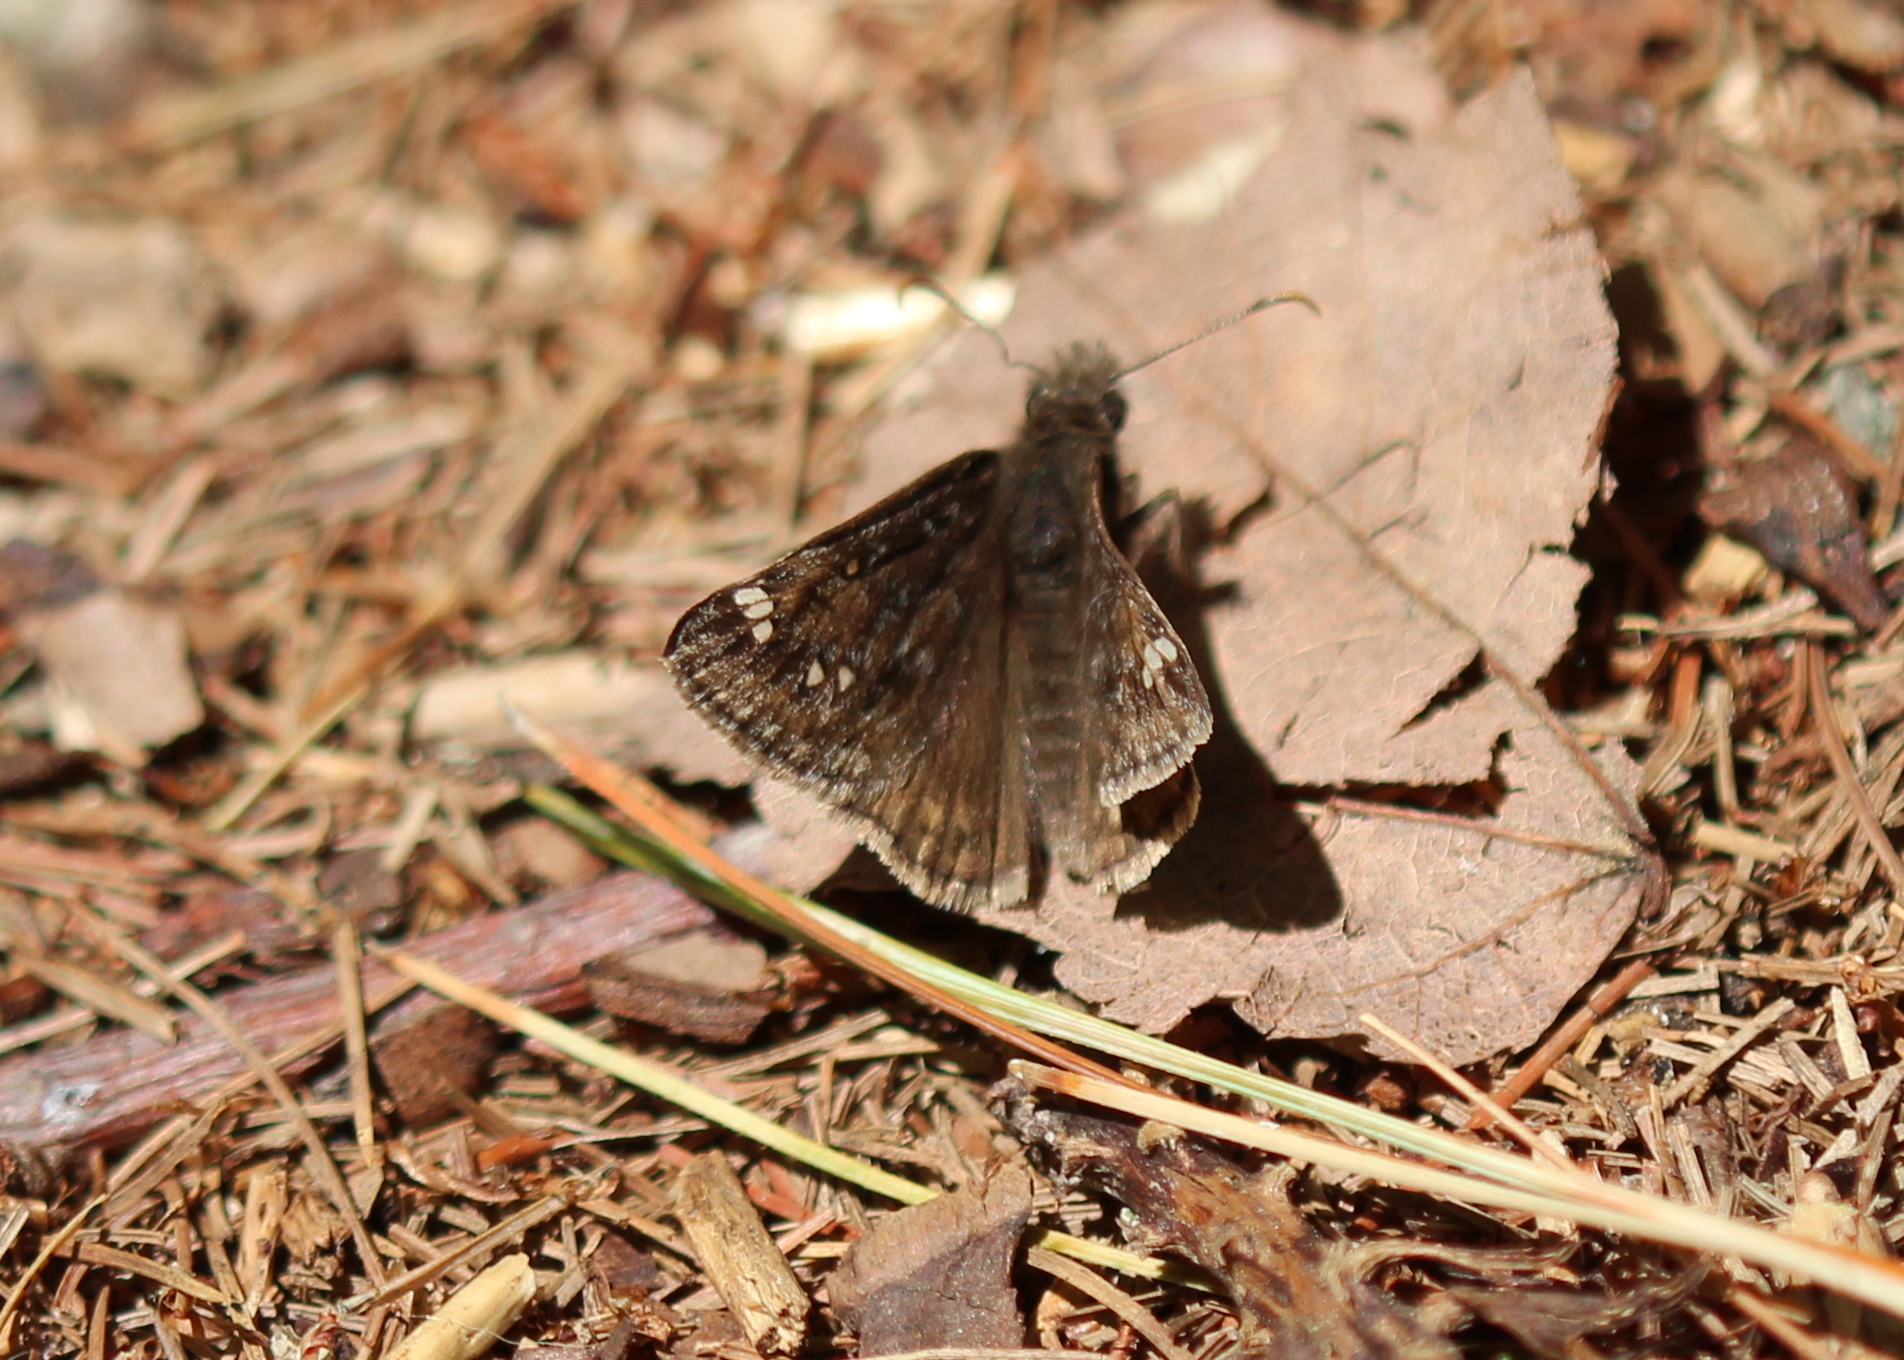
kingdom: Animalia
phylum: Arthropoda
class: Insecta
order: Lepidoptera
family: Hesperiidae
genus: Erynnis
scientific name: Erynnis juvenalis
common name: Juvenal's duskywing
